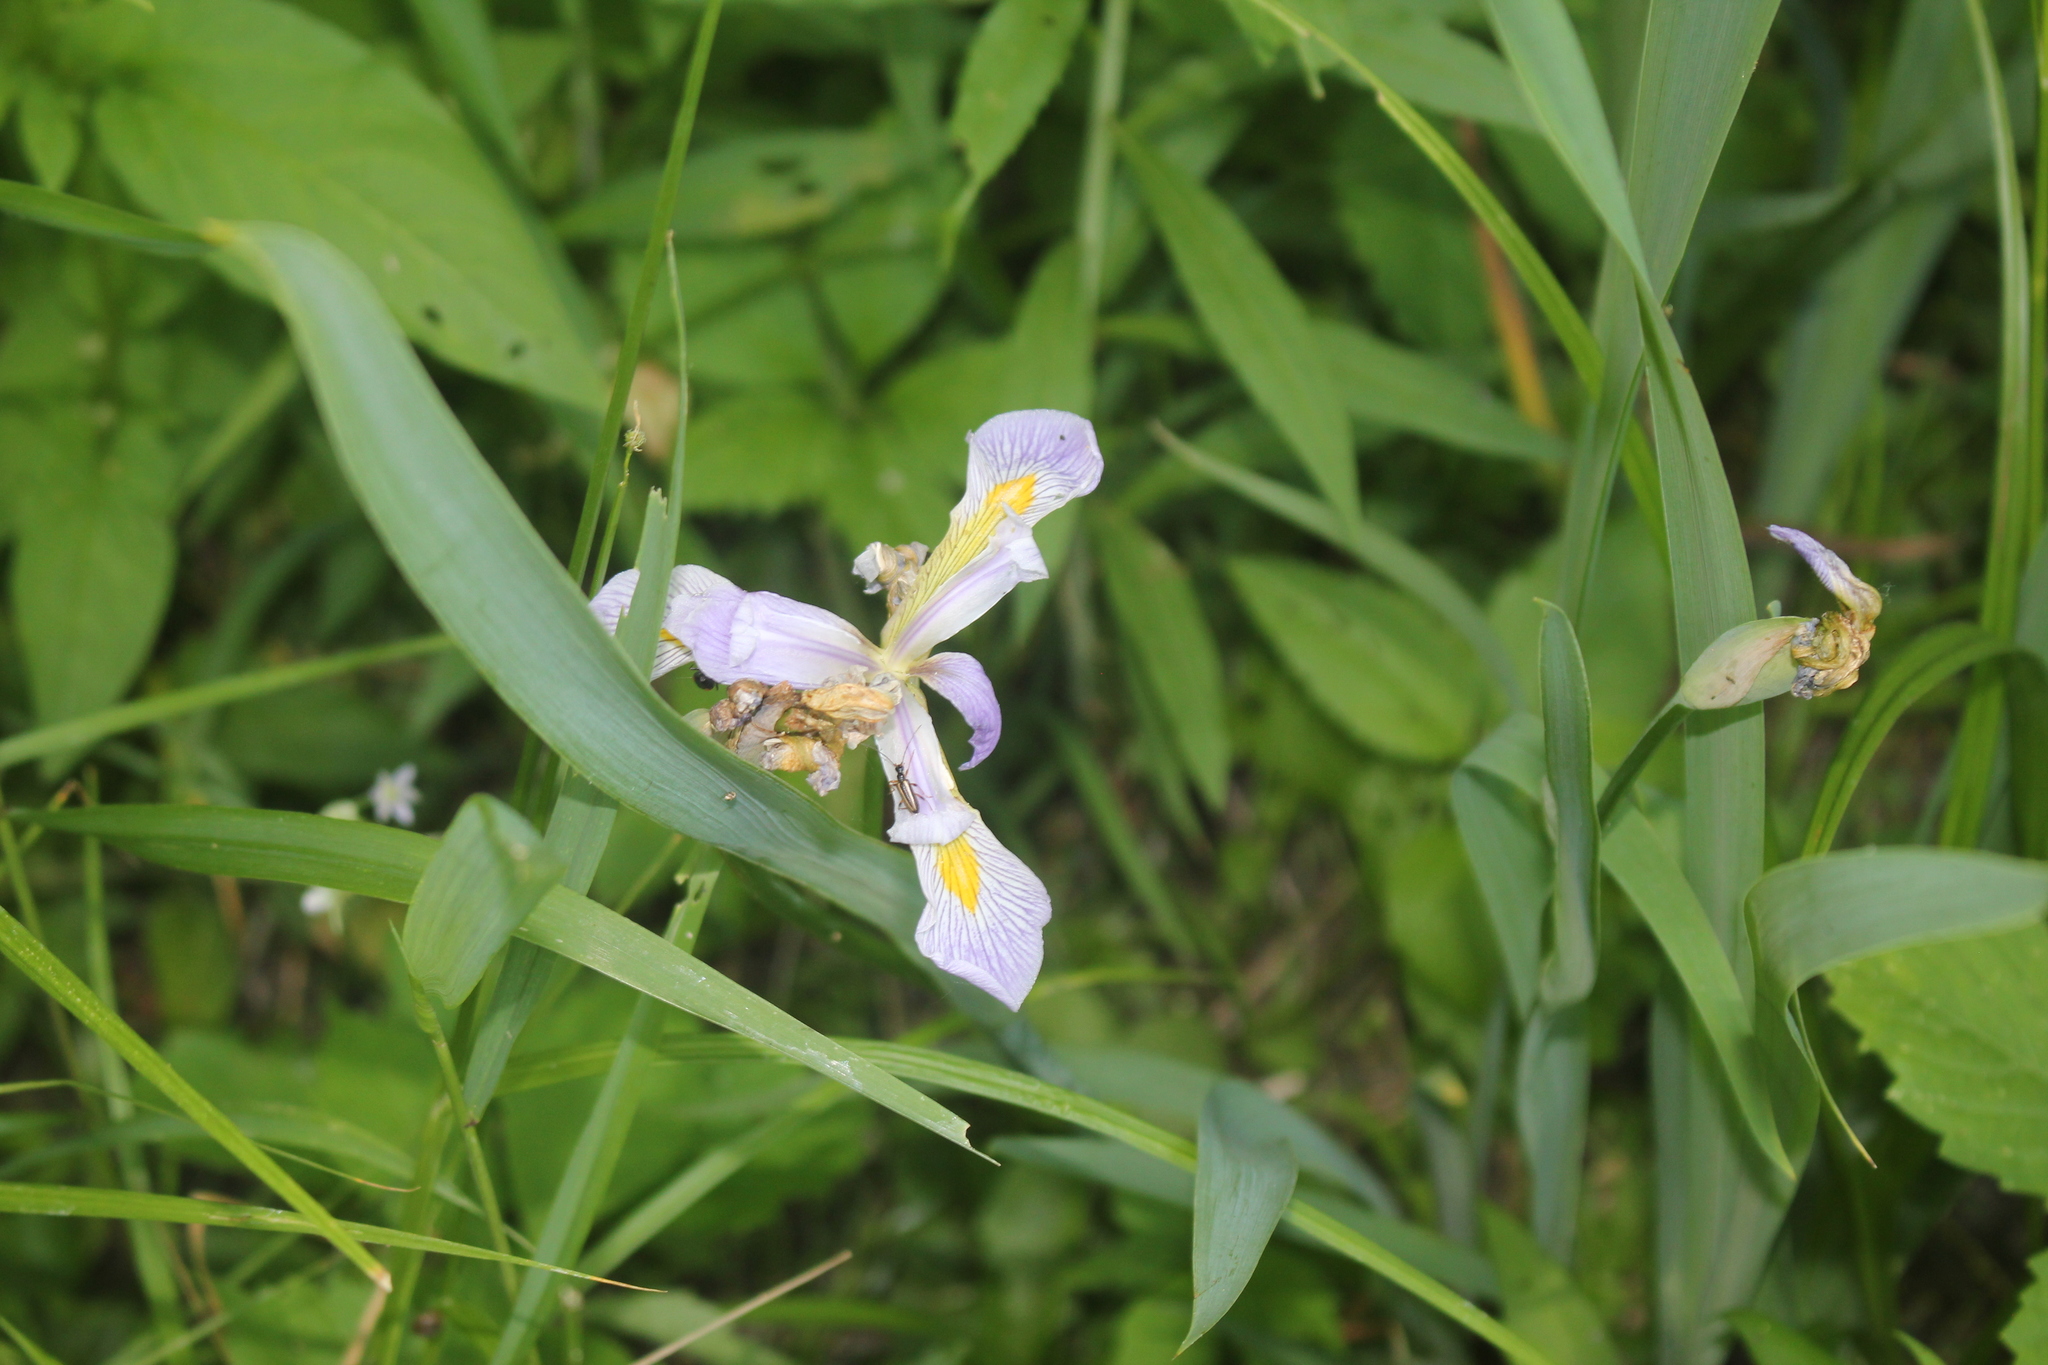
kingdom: Plantae
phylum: Tracheophyta
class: Liliopsida
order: Asparagales
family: Iridaceae
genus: Iris
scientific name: Iris virginica
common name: Southern blue flag
